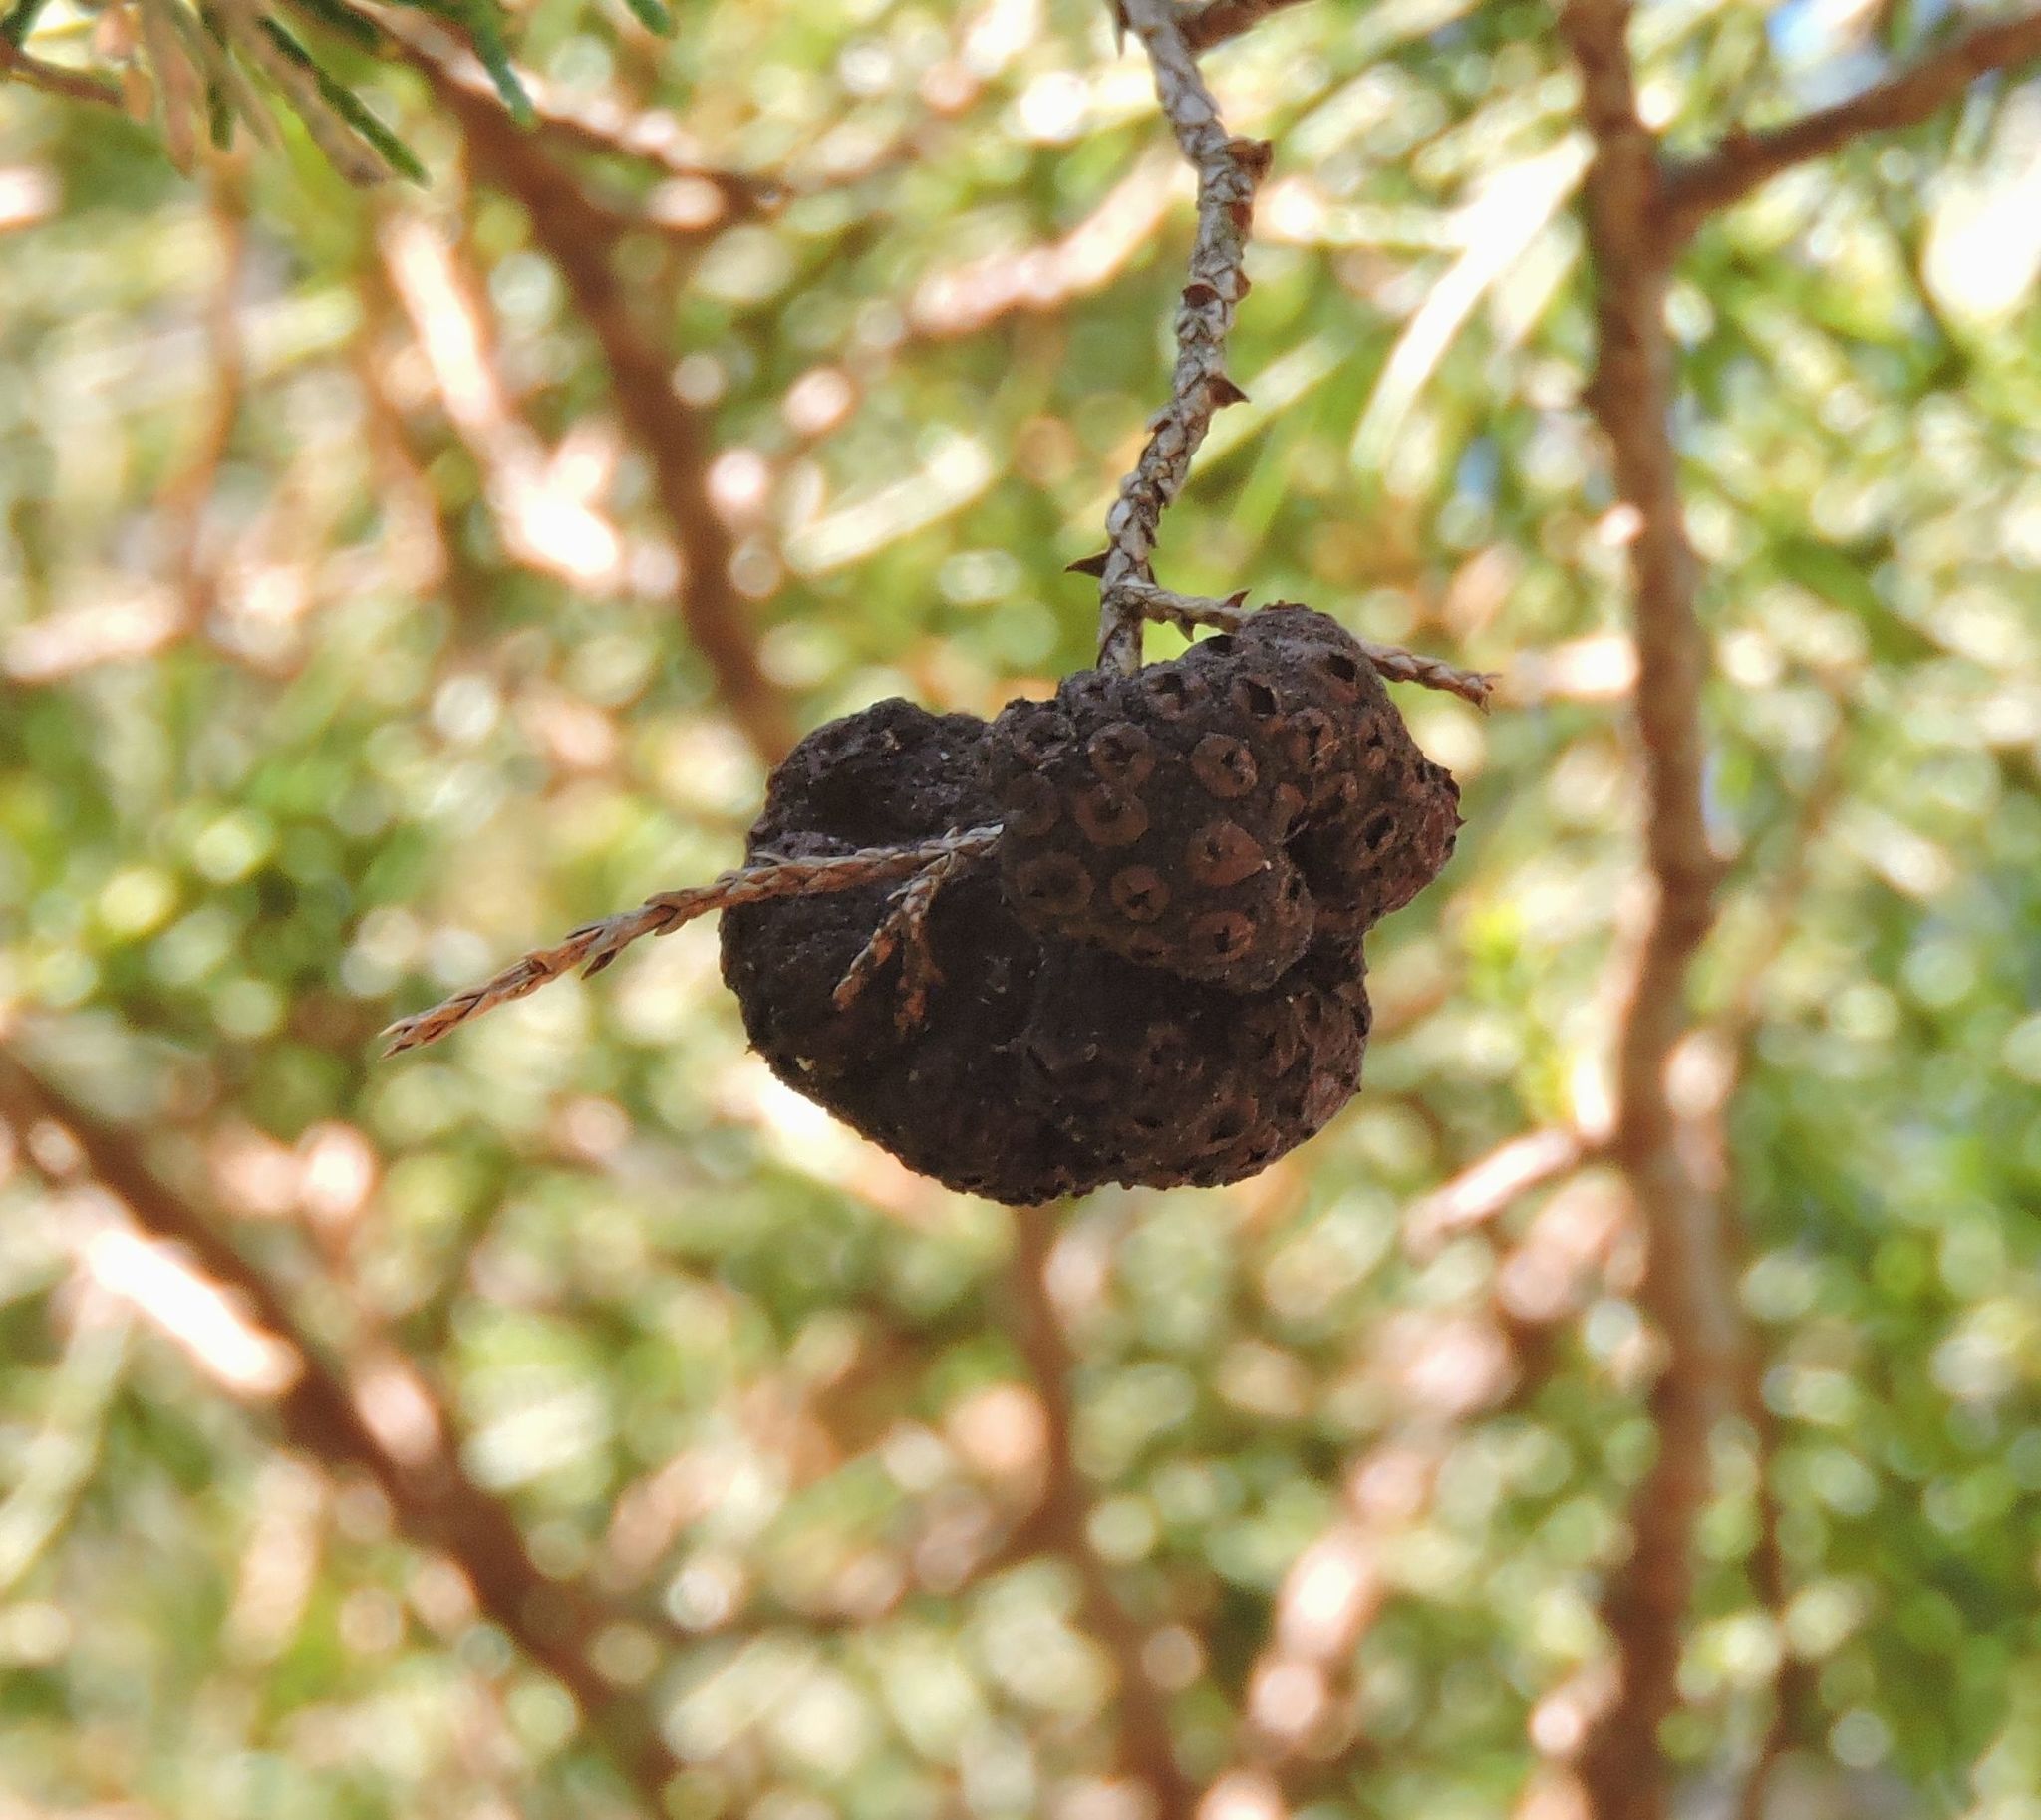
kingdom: Fungi
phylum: Basidiomycota
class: Pucciniomycetes
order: Pucciniales
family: Gymnosporangiaceae
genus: Gymnosporangium
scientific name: Gymnosporangium juniperi-virginianae
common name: Juniper-apple rust
